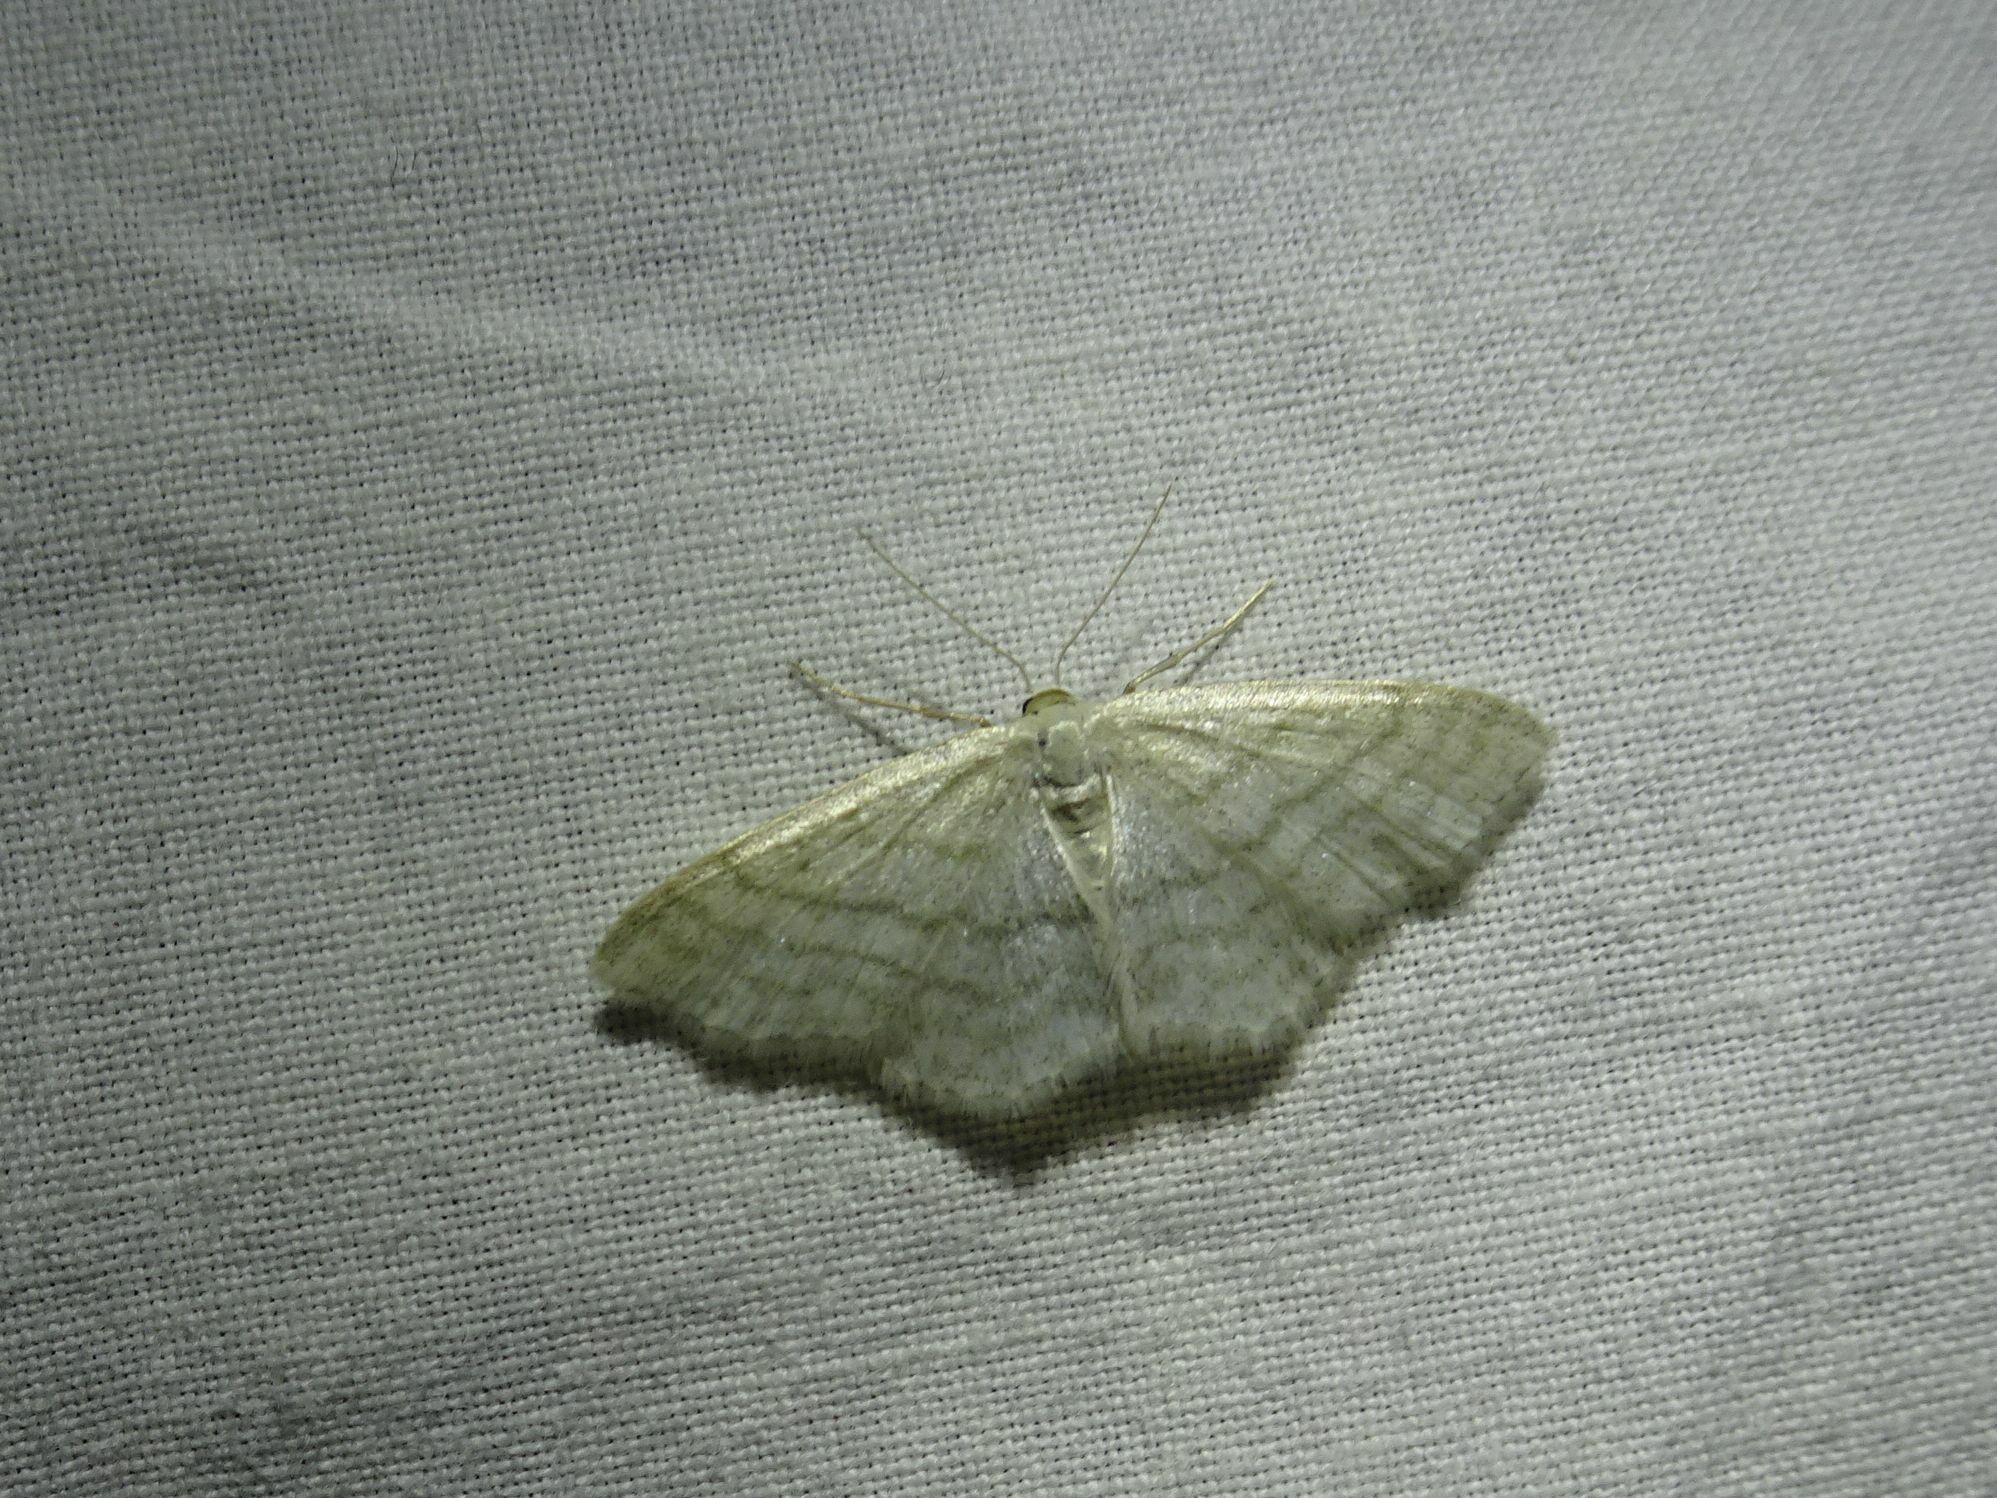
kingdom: Animalia
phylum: Arthropoda
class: Insecta
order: Lepidoptera
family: Geometridae
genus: Idaea
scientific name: Idaea subsericeata
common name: Satin wave
